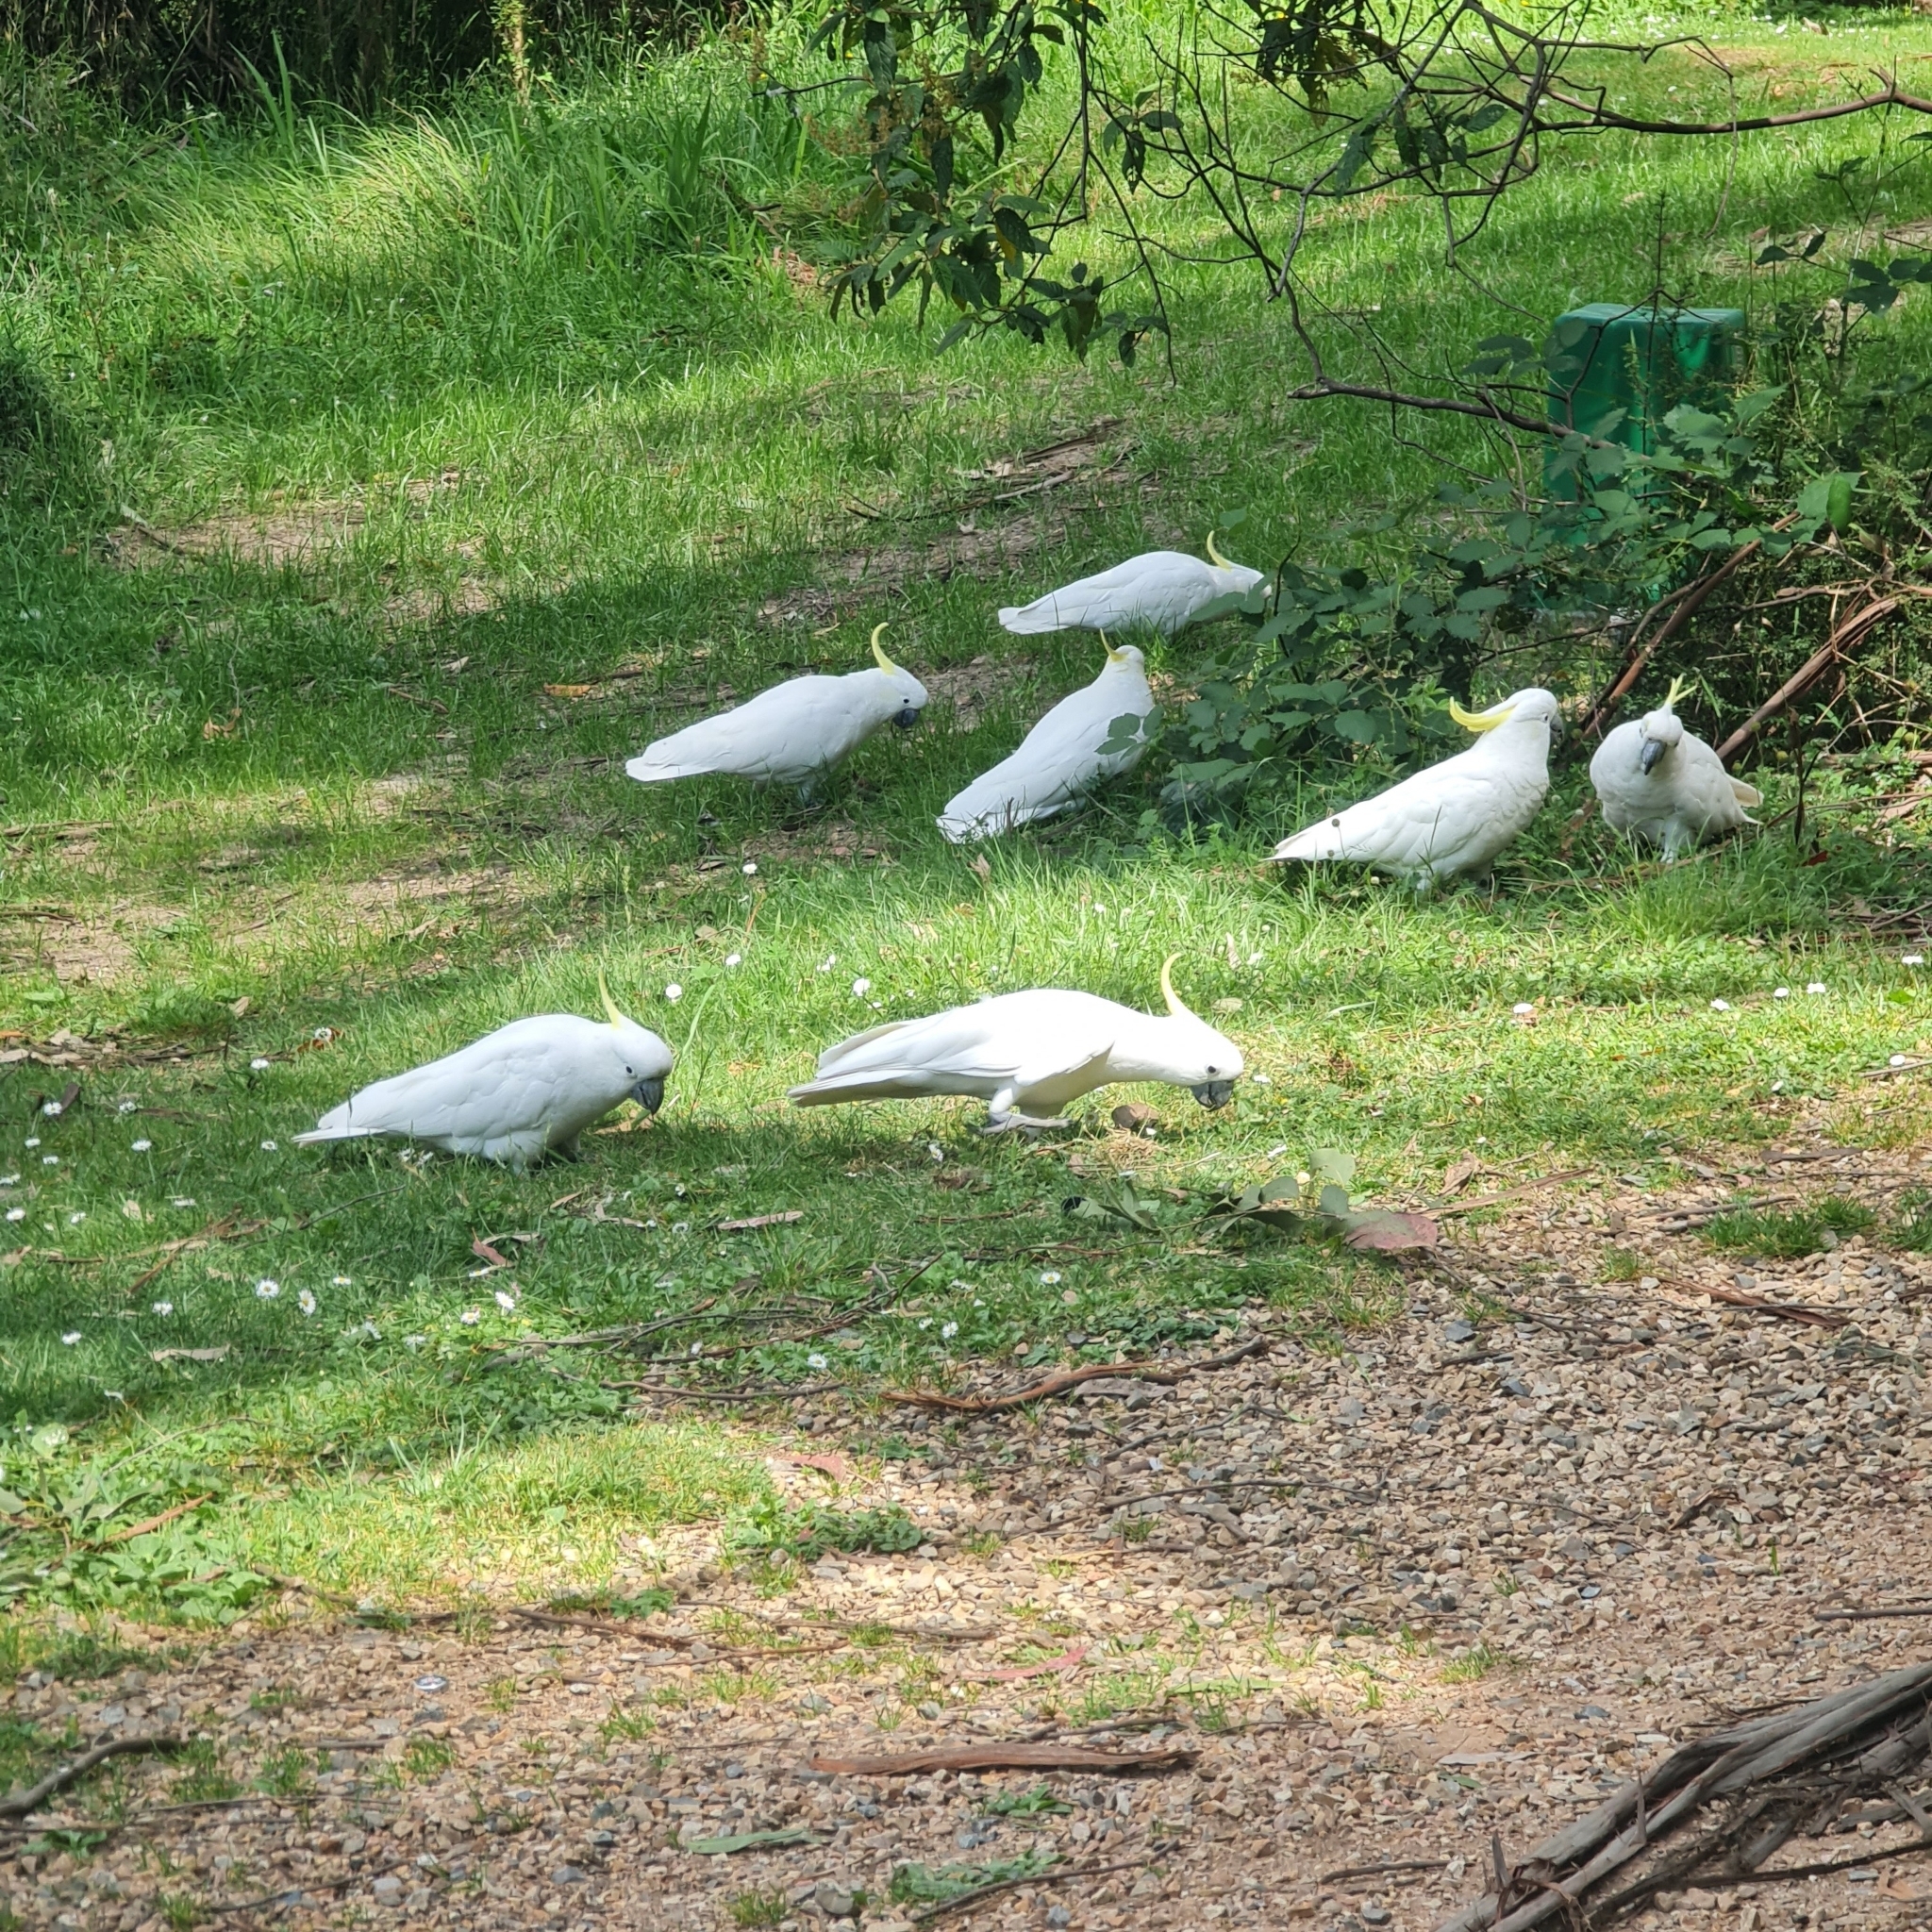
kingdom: Animalia
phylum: Chordata
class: Aves
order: Psittaciformes
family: Psittacidae
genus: Cacatua
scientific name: Cacatua galerita
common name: Sulphur-crested cockatoo
